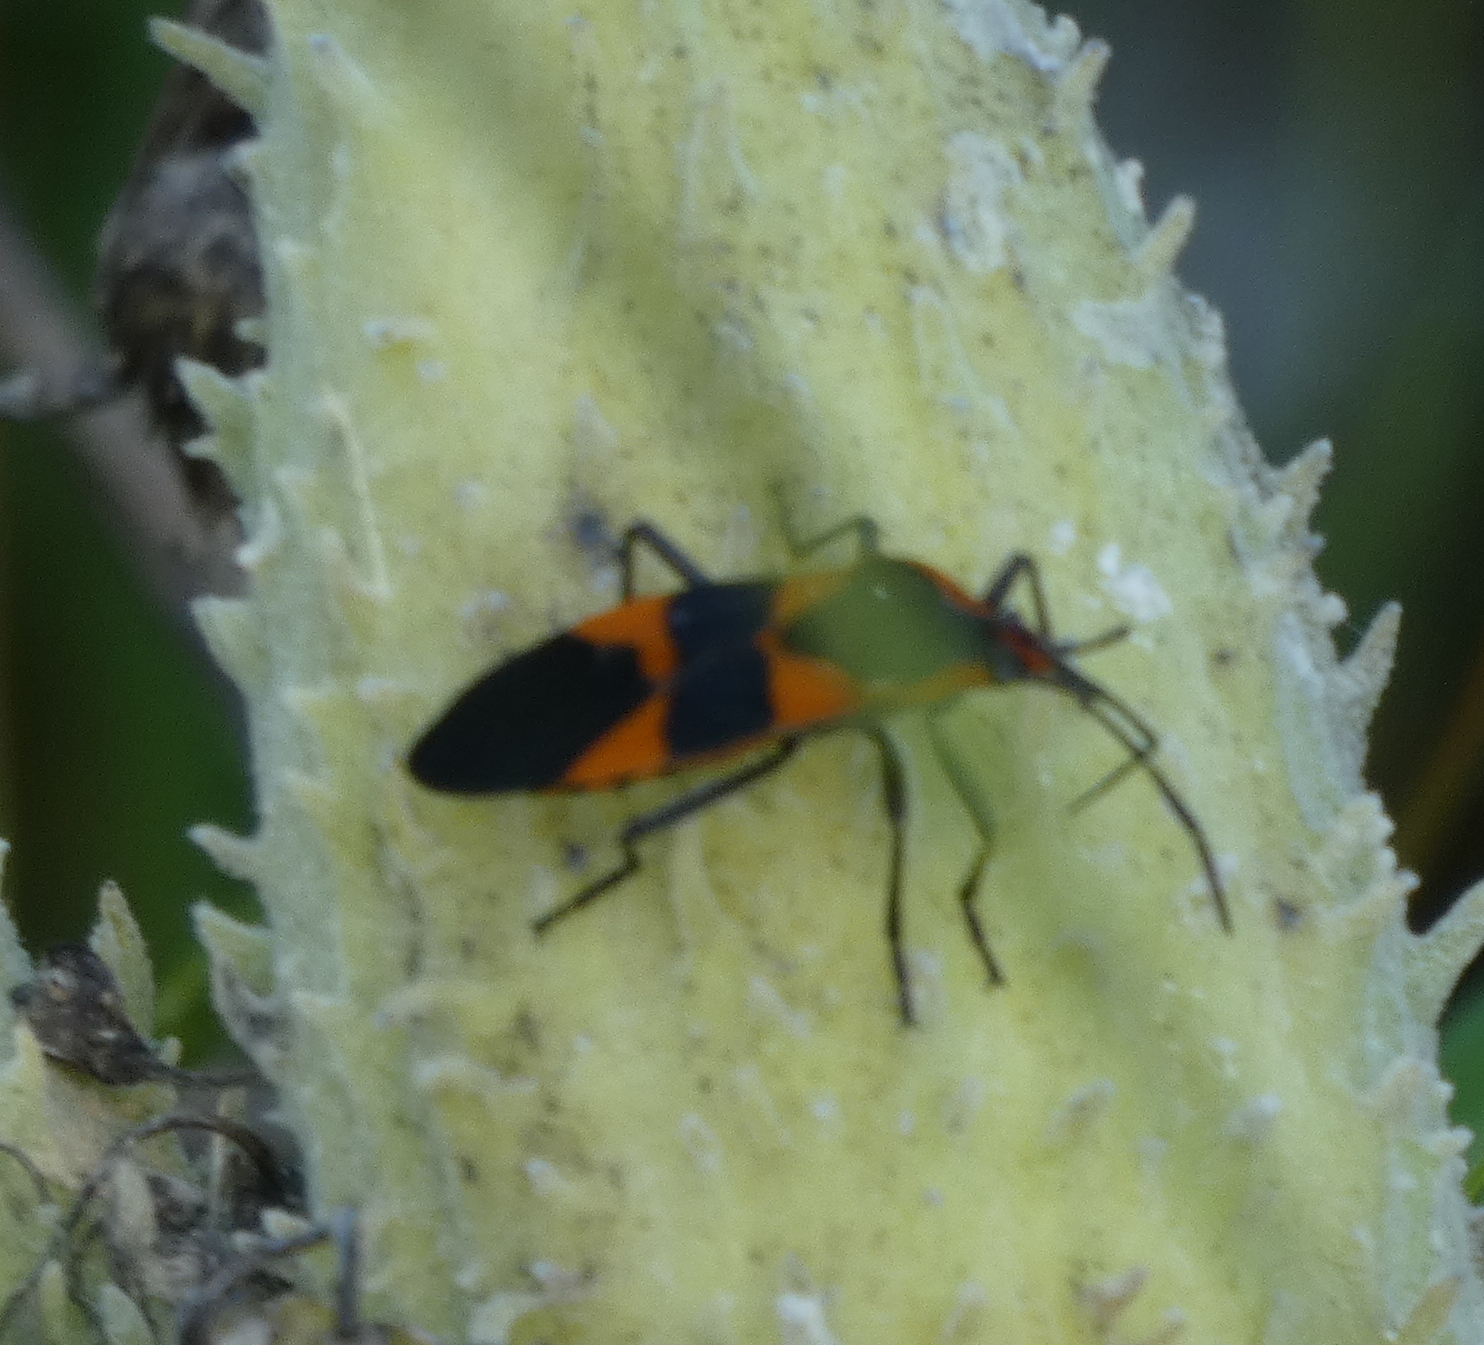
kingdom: Animalia
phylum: Arthropoda
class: Insecta
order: Hemiptera
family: Lygaeidae
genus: Oncopeltus
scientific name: Oncopeltus fasciatus
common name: Large milkweed bug
